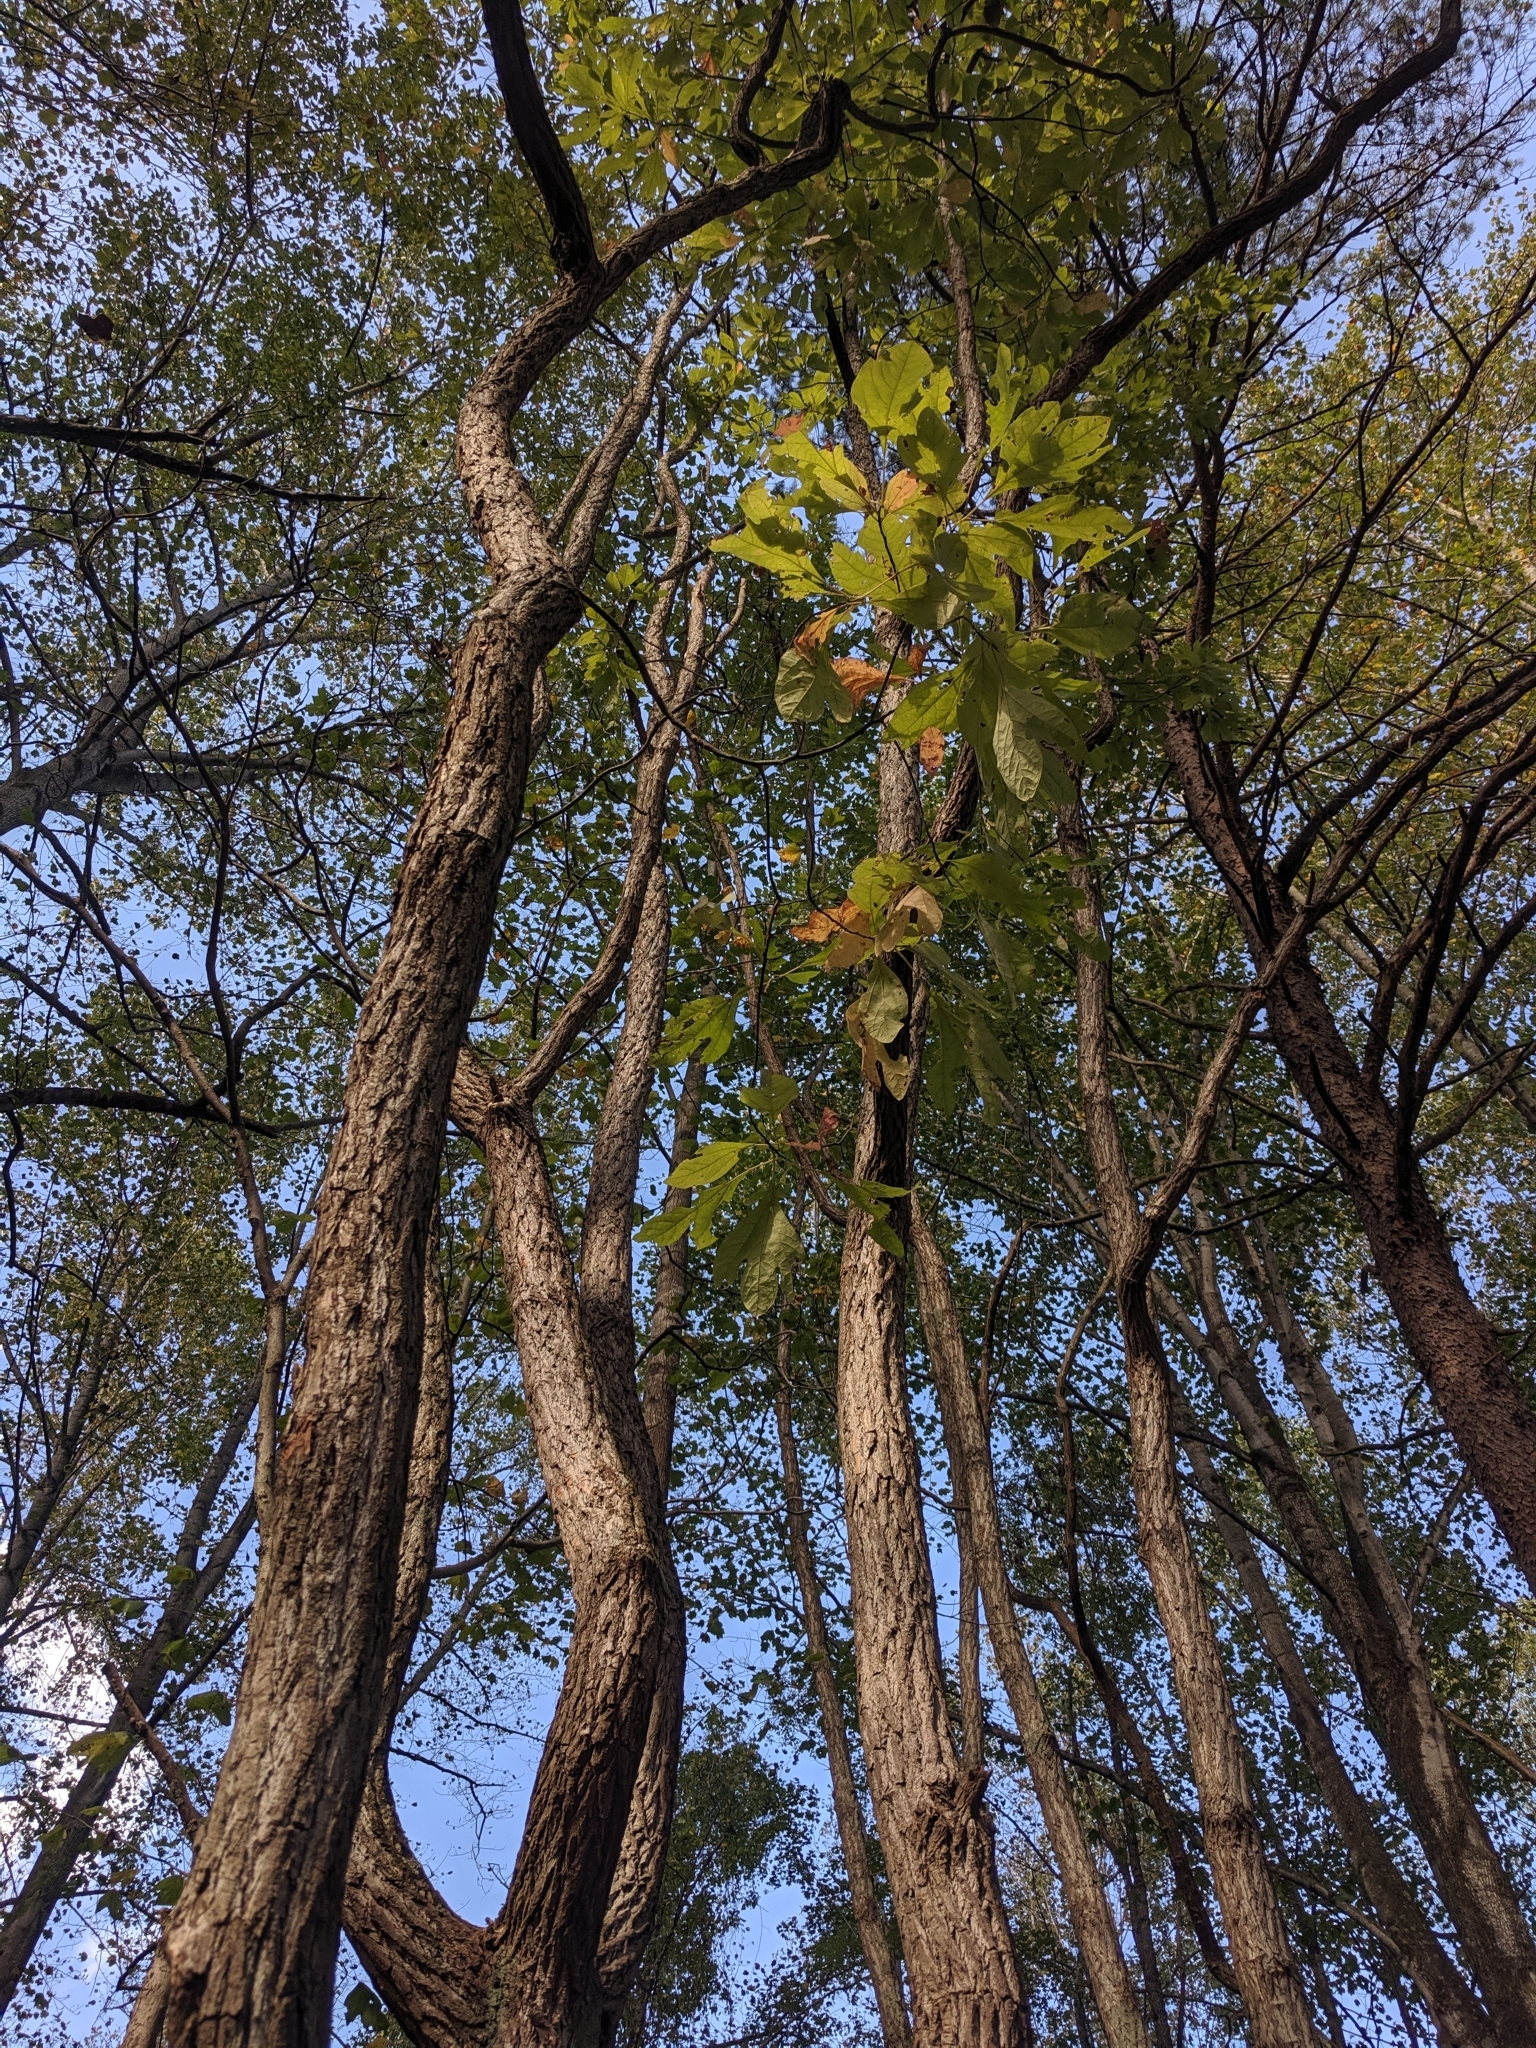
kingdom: Plantae
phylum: Tracheophyta
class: Magnoliopsida
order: Laurales
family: Lauraceae
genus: Sassafras
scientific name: Sassafras albidum
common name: Sassafras
